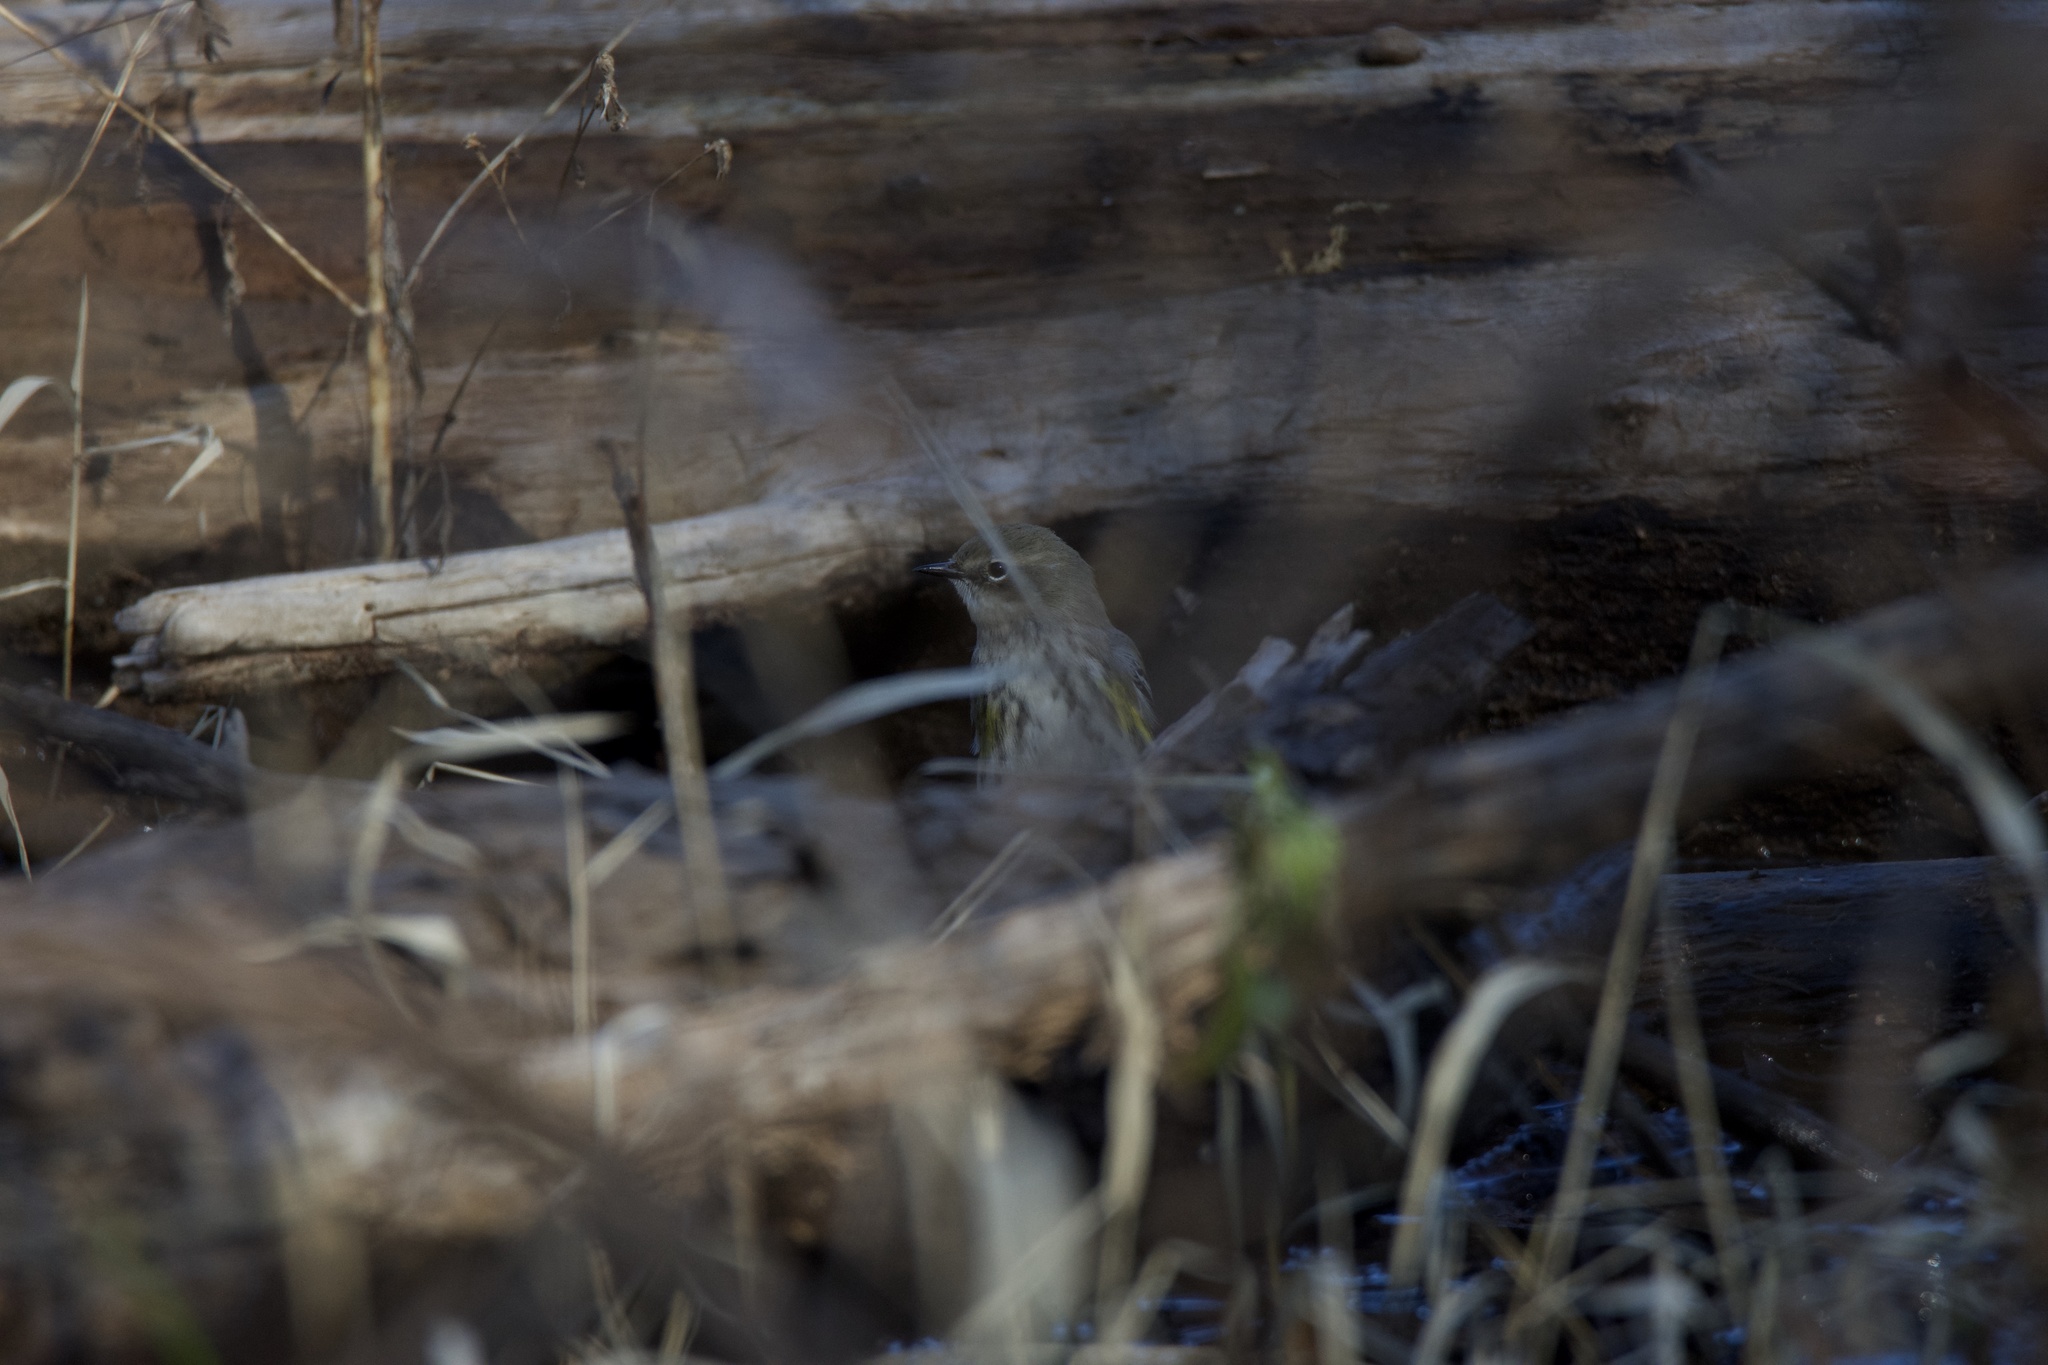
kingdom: Animalia
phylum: Chordata
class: Aves
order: Passeriformes
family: Parulidae
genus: Setophaga
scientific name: Setophaga coronata
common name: Myrtle warbler
